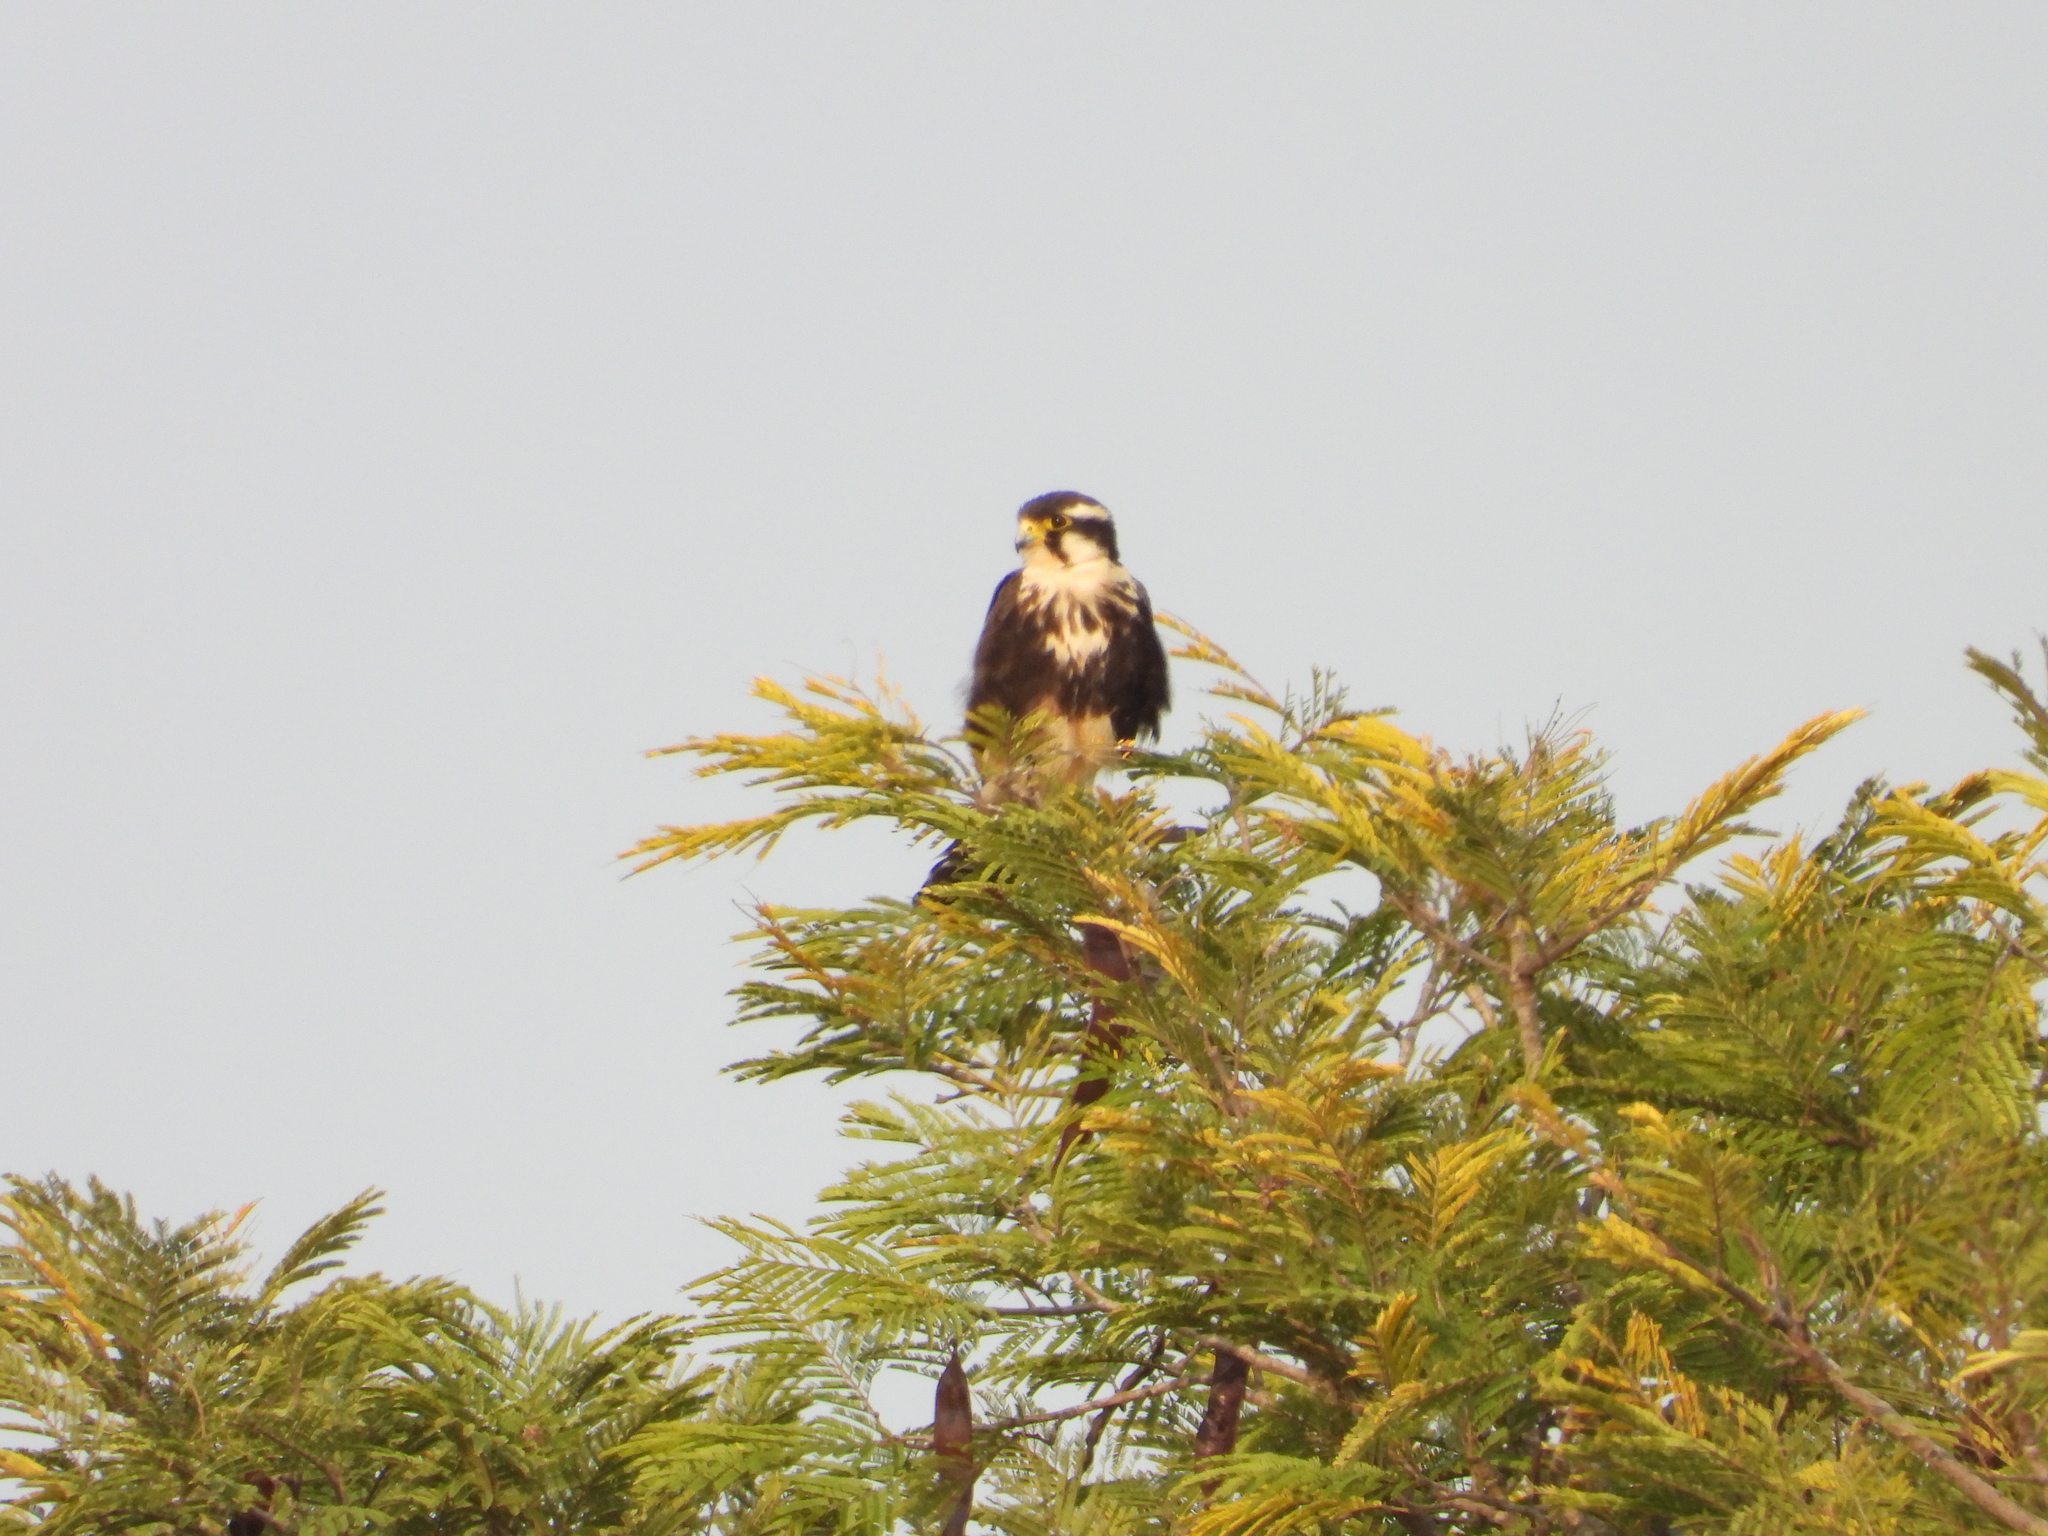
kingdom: Animalia
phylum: Chordata
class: Aves
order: Falconiformes
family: Falconidae
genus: Falco
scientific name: Falco femoralis
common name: Aplomado falcon
